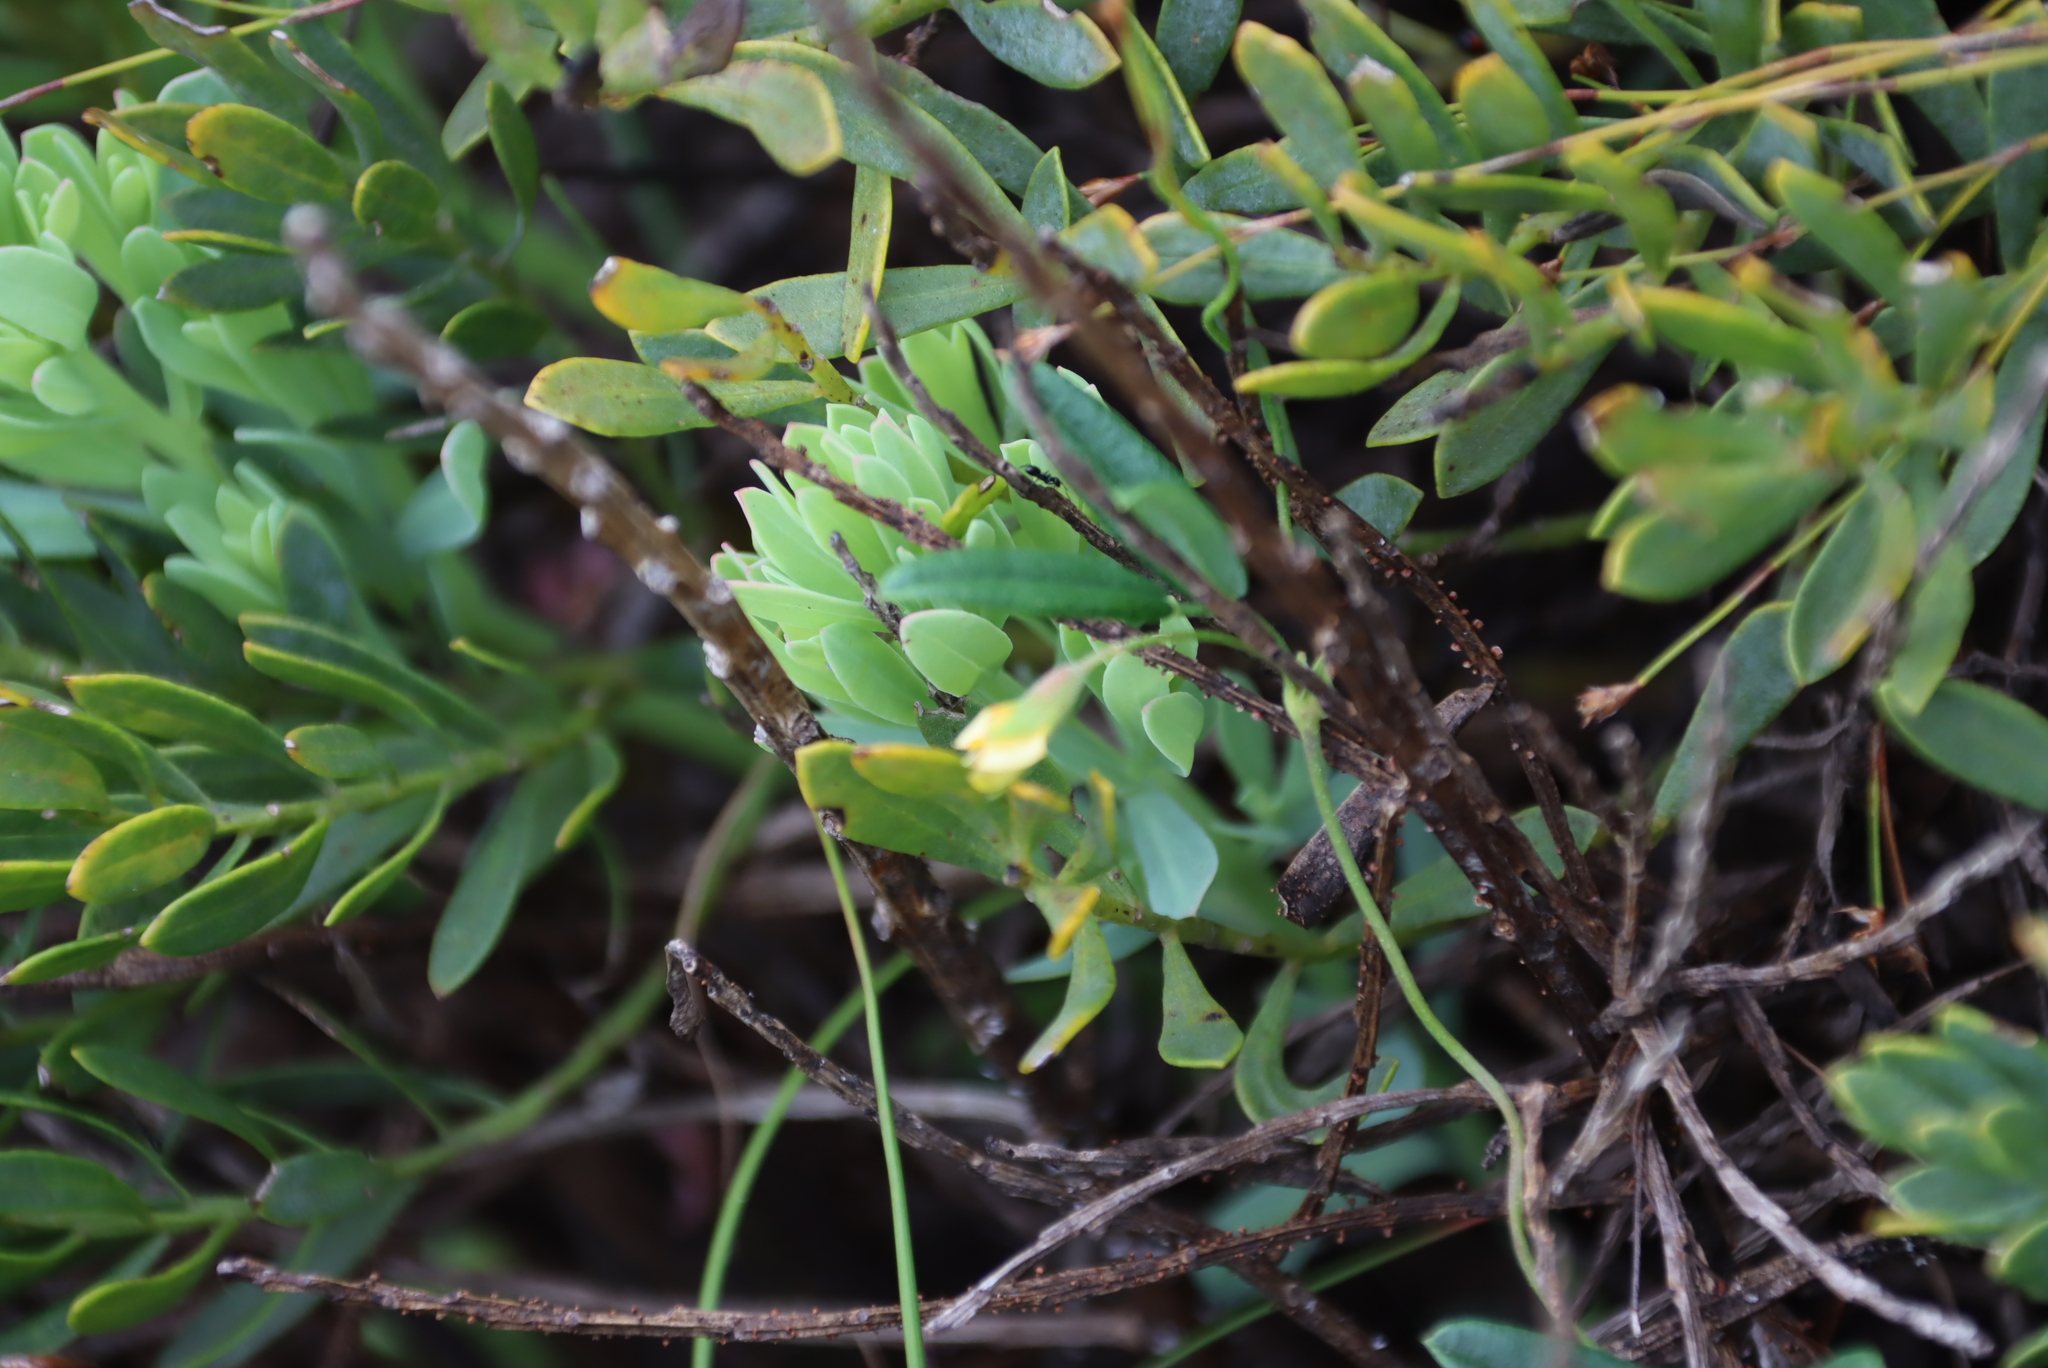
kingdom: Plantae
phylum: Tracheophyta
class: Magnoliopsida
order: Fabales
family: Fabaceae
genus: Rafnia
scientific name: Rafnia angulata
